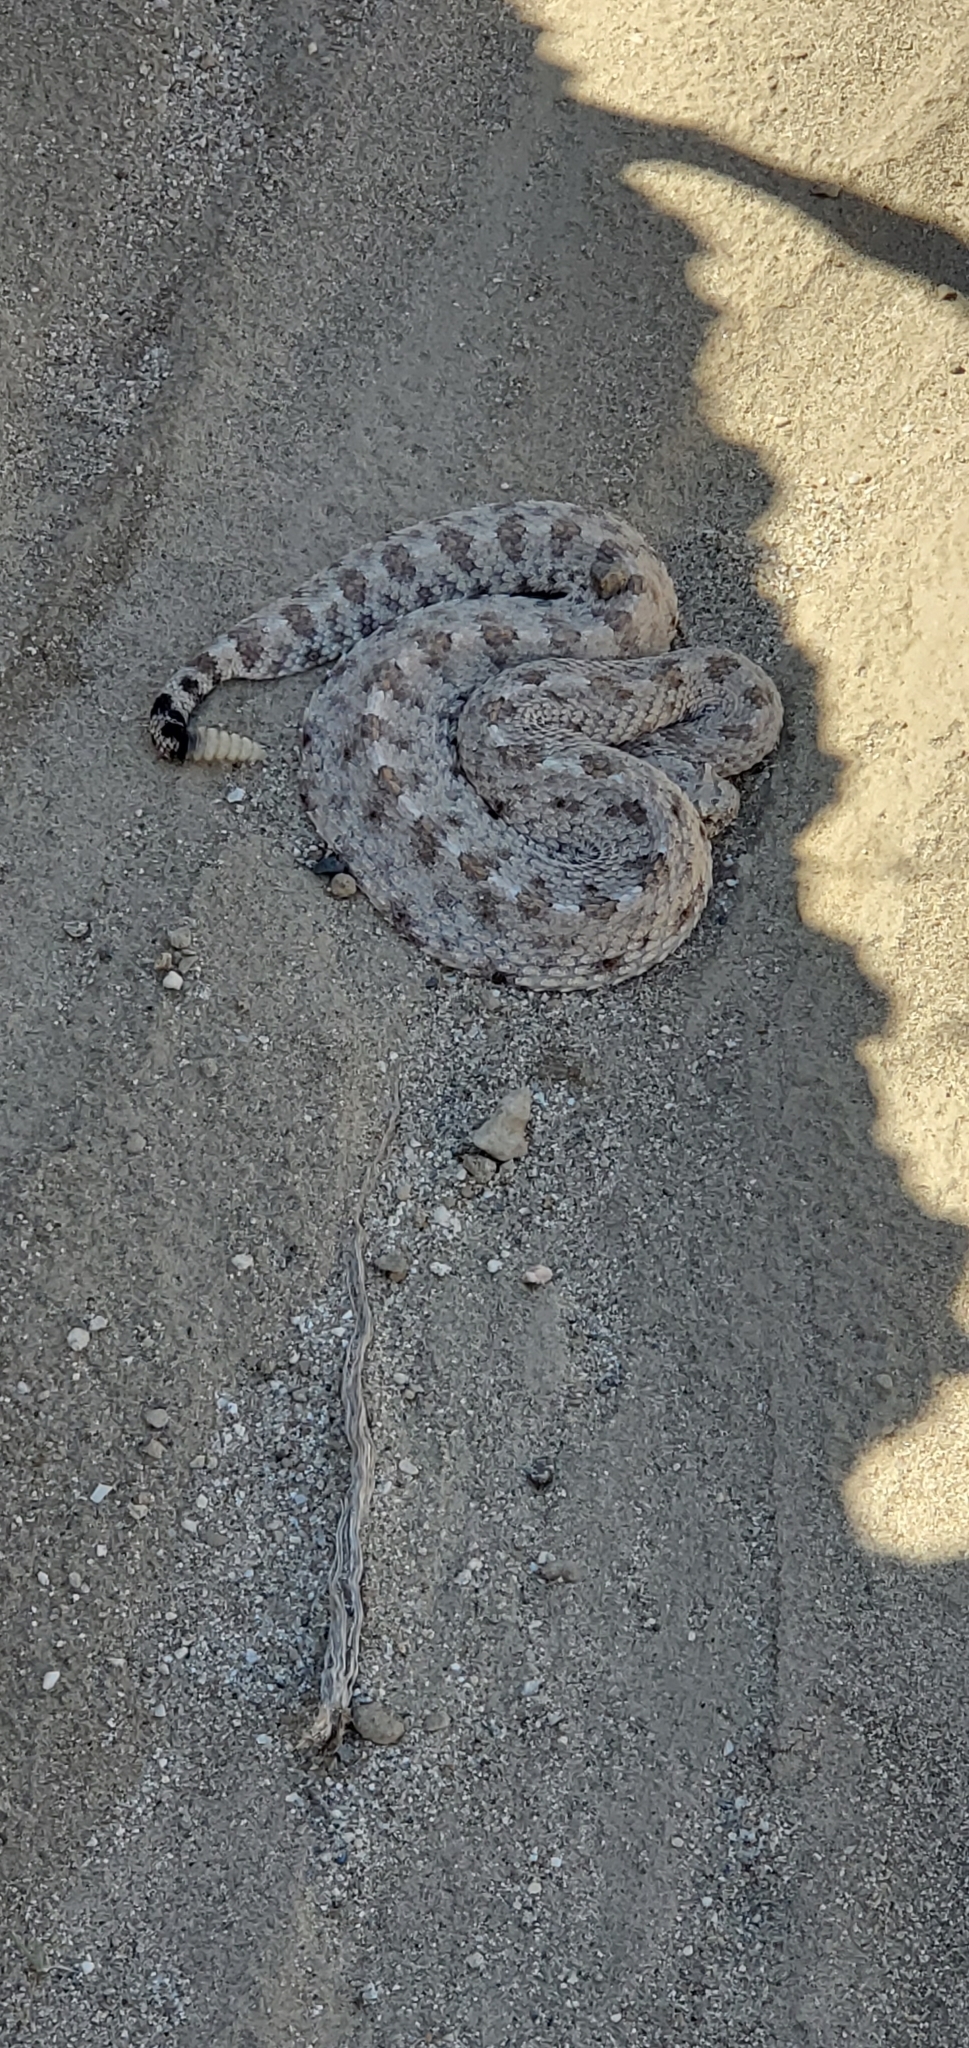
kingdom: Animalia
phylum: Chordata
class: Squamata
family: Viperidae
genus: Crotalus
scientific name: Crotalus cerastes
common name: Sidewinder
